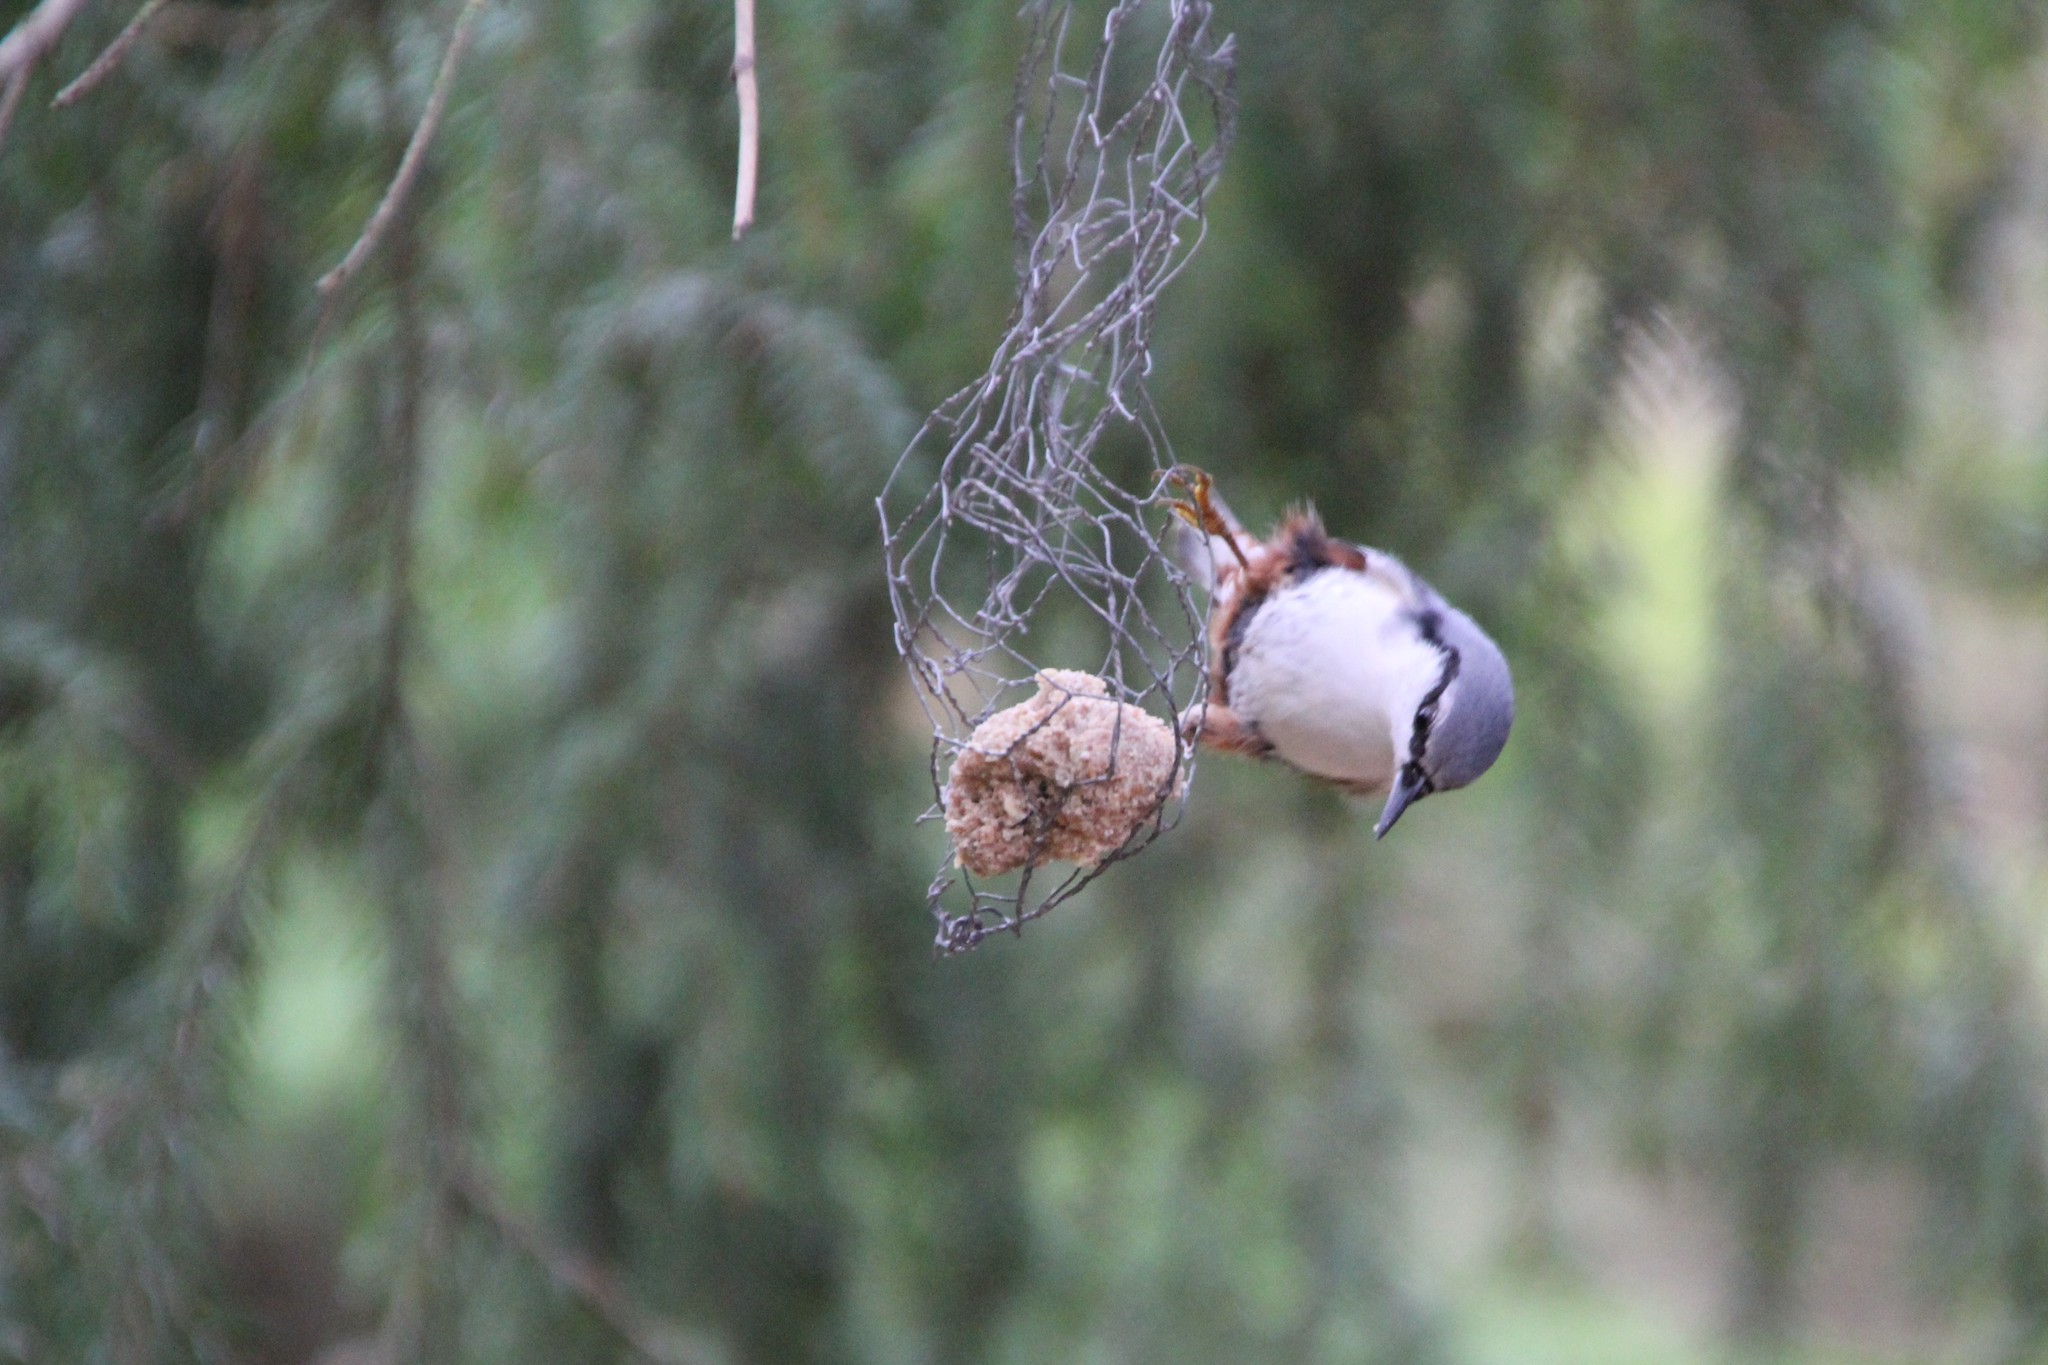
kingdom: Animalia
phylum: Chordata
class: Aves
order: Passeriformes
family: Sittidae
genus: Sitta
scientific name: Sitta europaea
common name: Eurasian nuthatch
